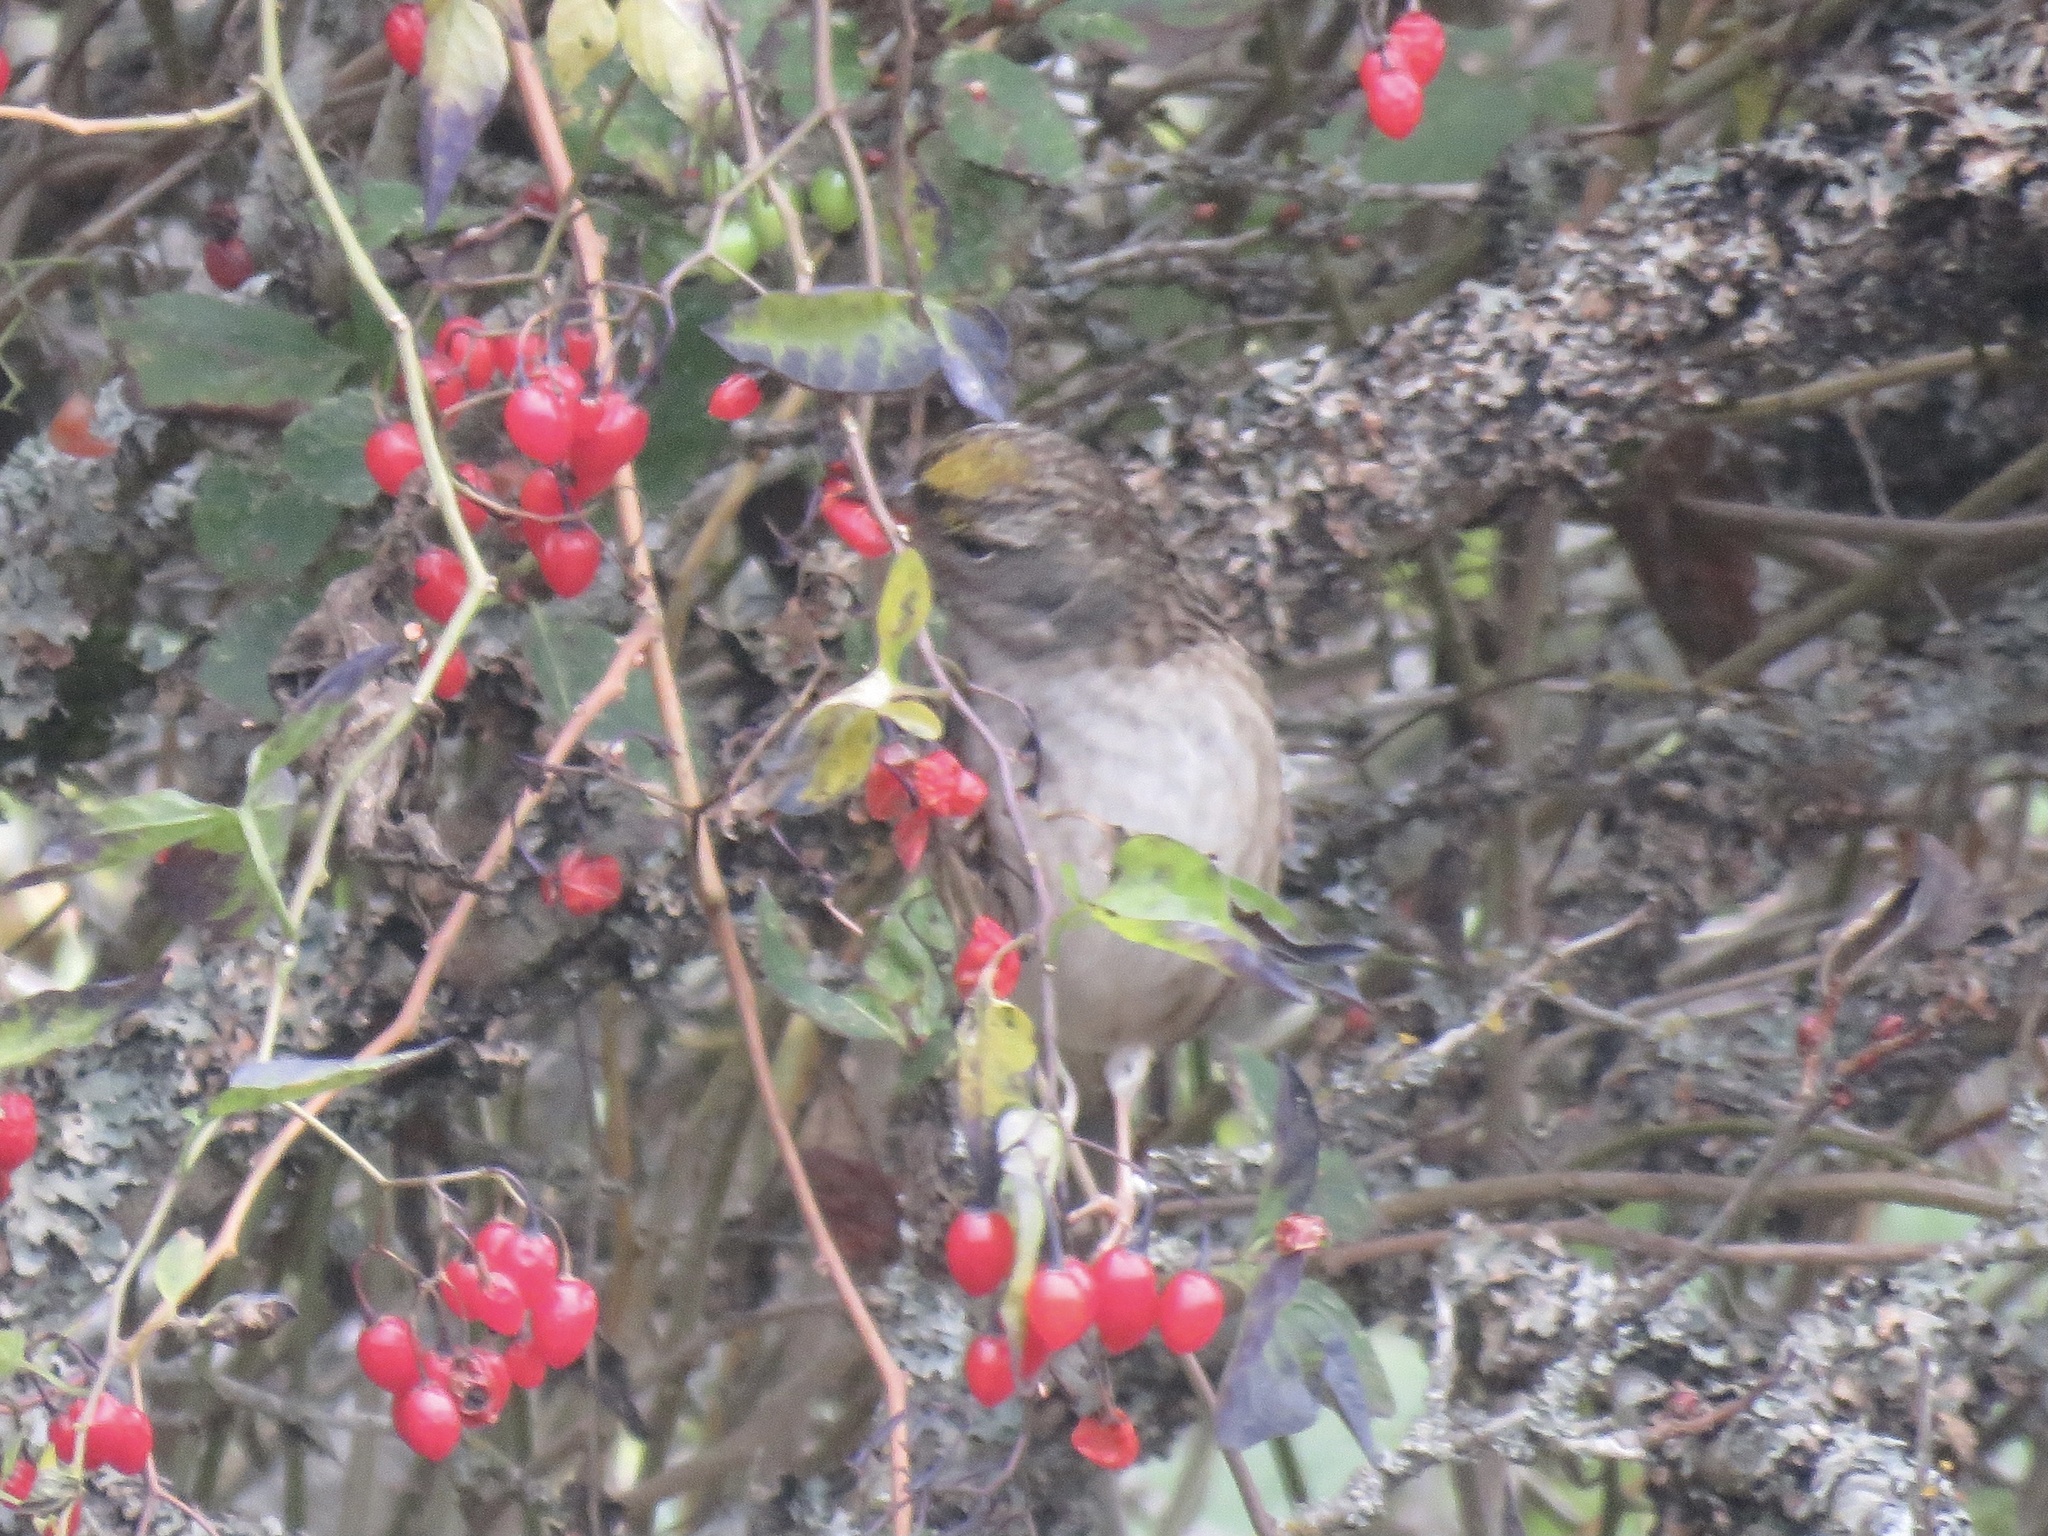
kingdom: Animalia
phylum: Chordata
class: Aves
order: Passeriformes
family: Passerellidae
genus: Zonotrichia
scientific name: Zonotrichia atricapilla
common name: Golden-crowned sparrow
